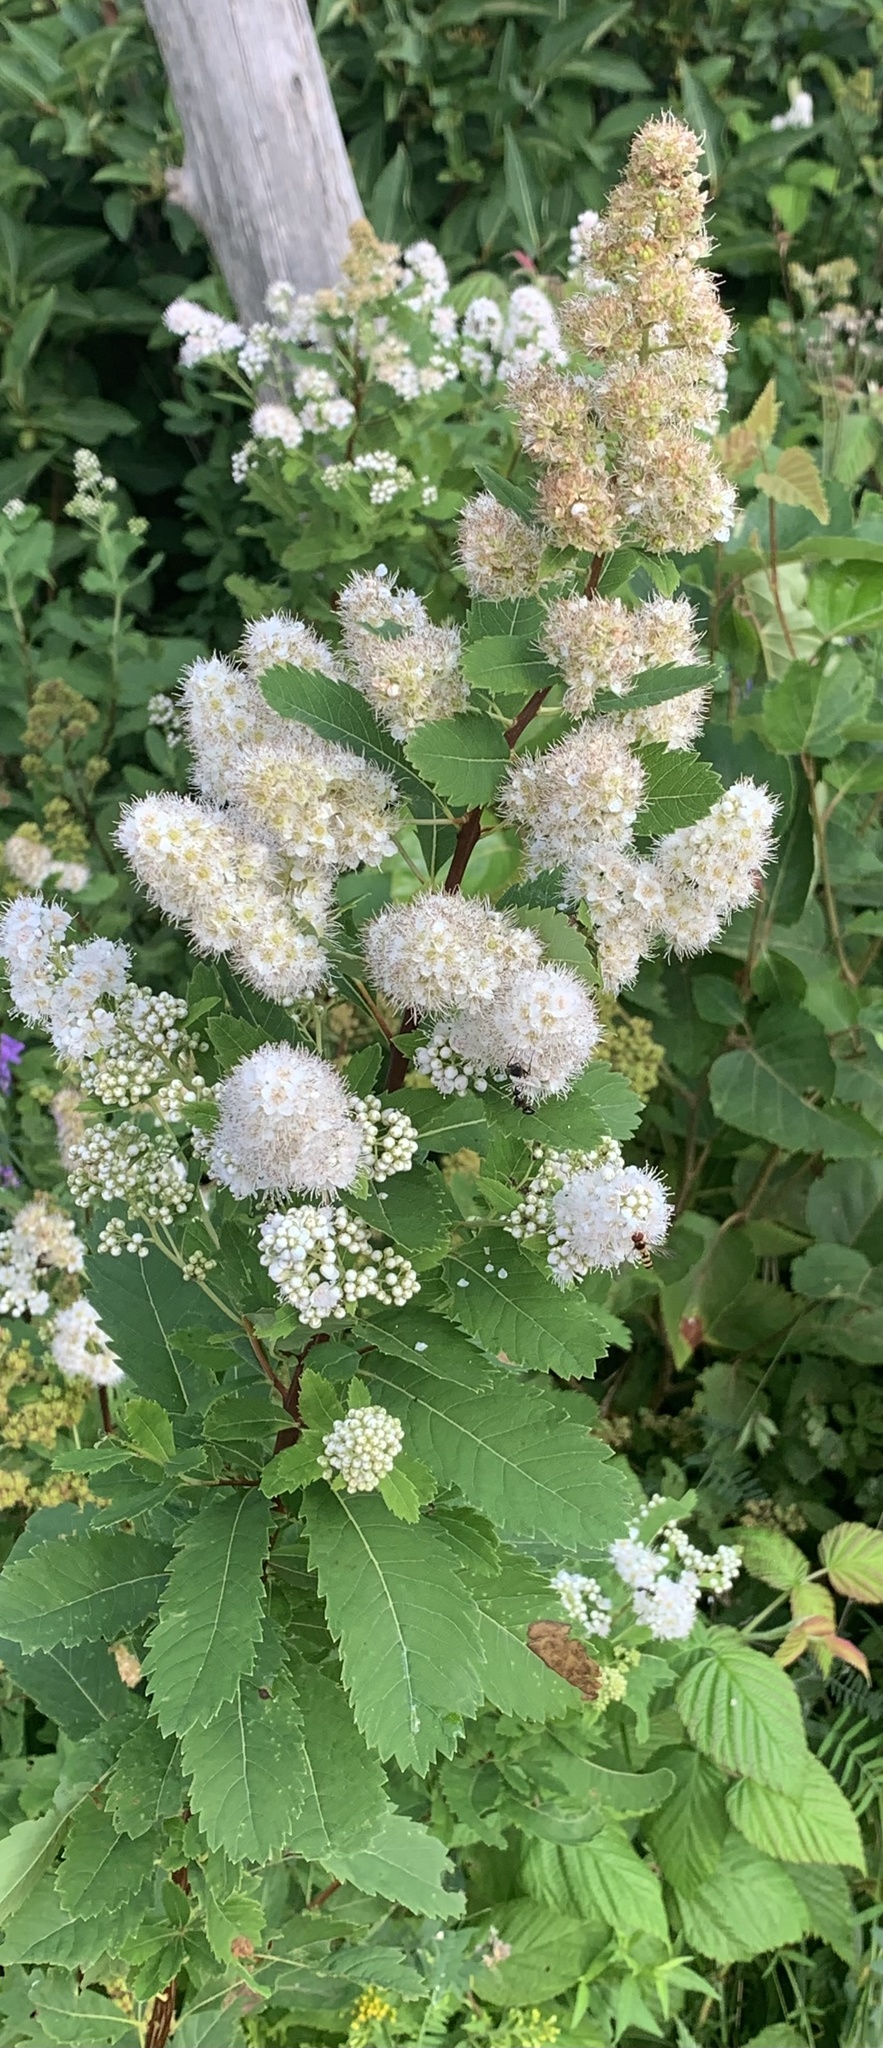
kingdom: Plantae
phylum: Tracheophyta
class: Magnoliopsida
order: Rosales
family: Rosaceae
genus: Spiraea
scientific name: Spiraea alba
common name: Pale bridewort
